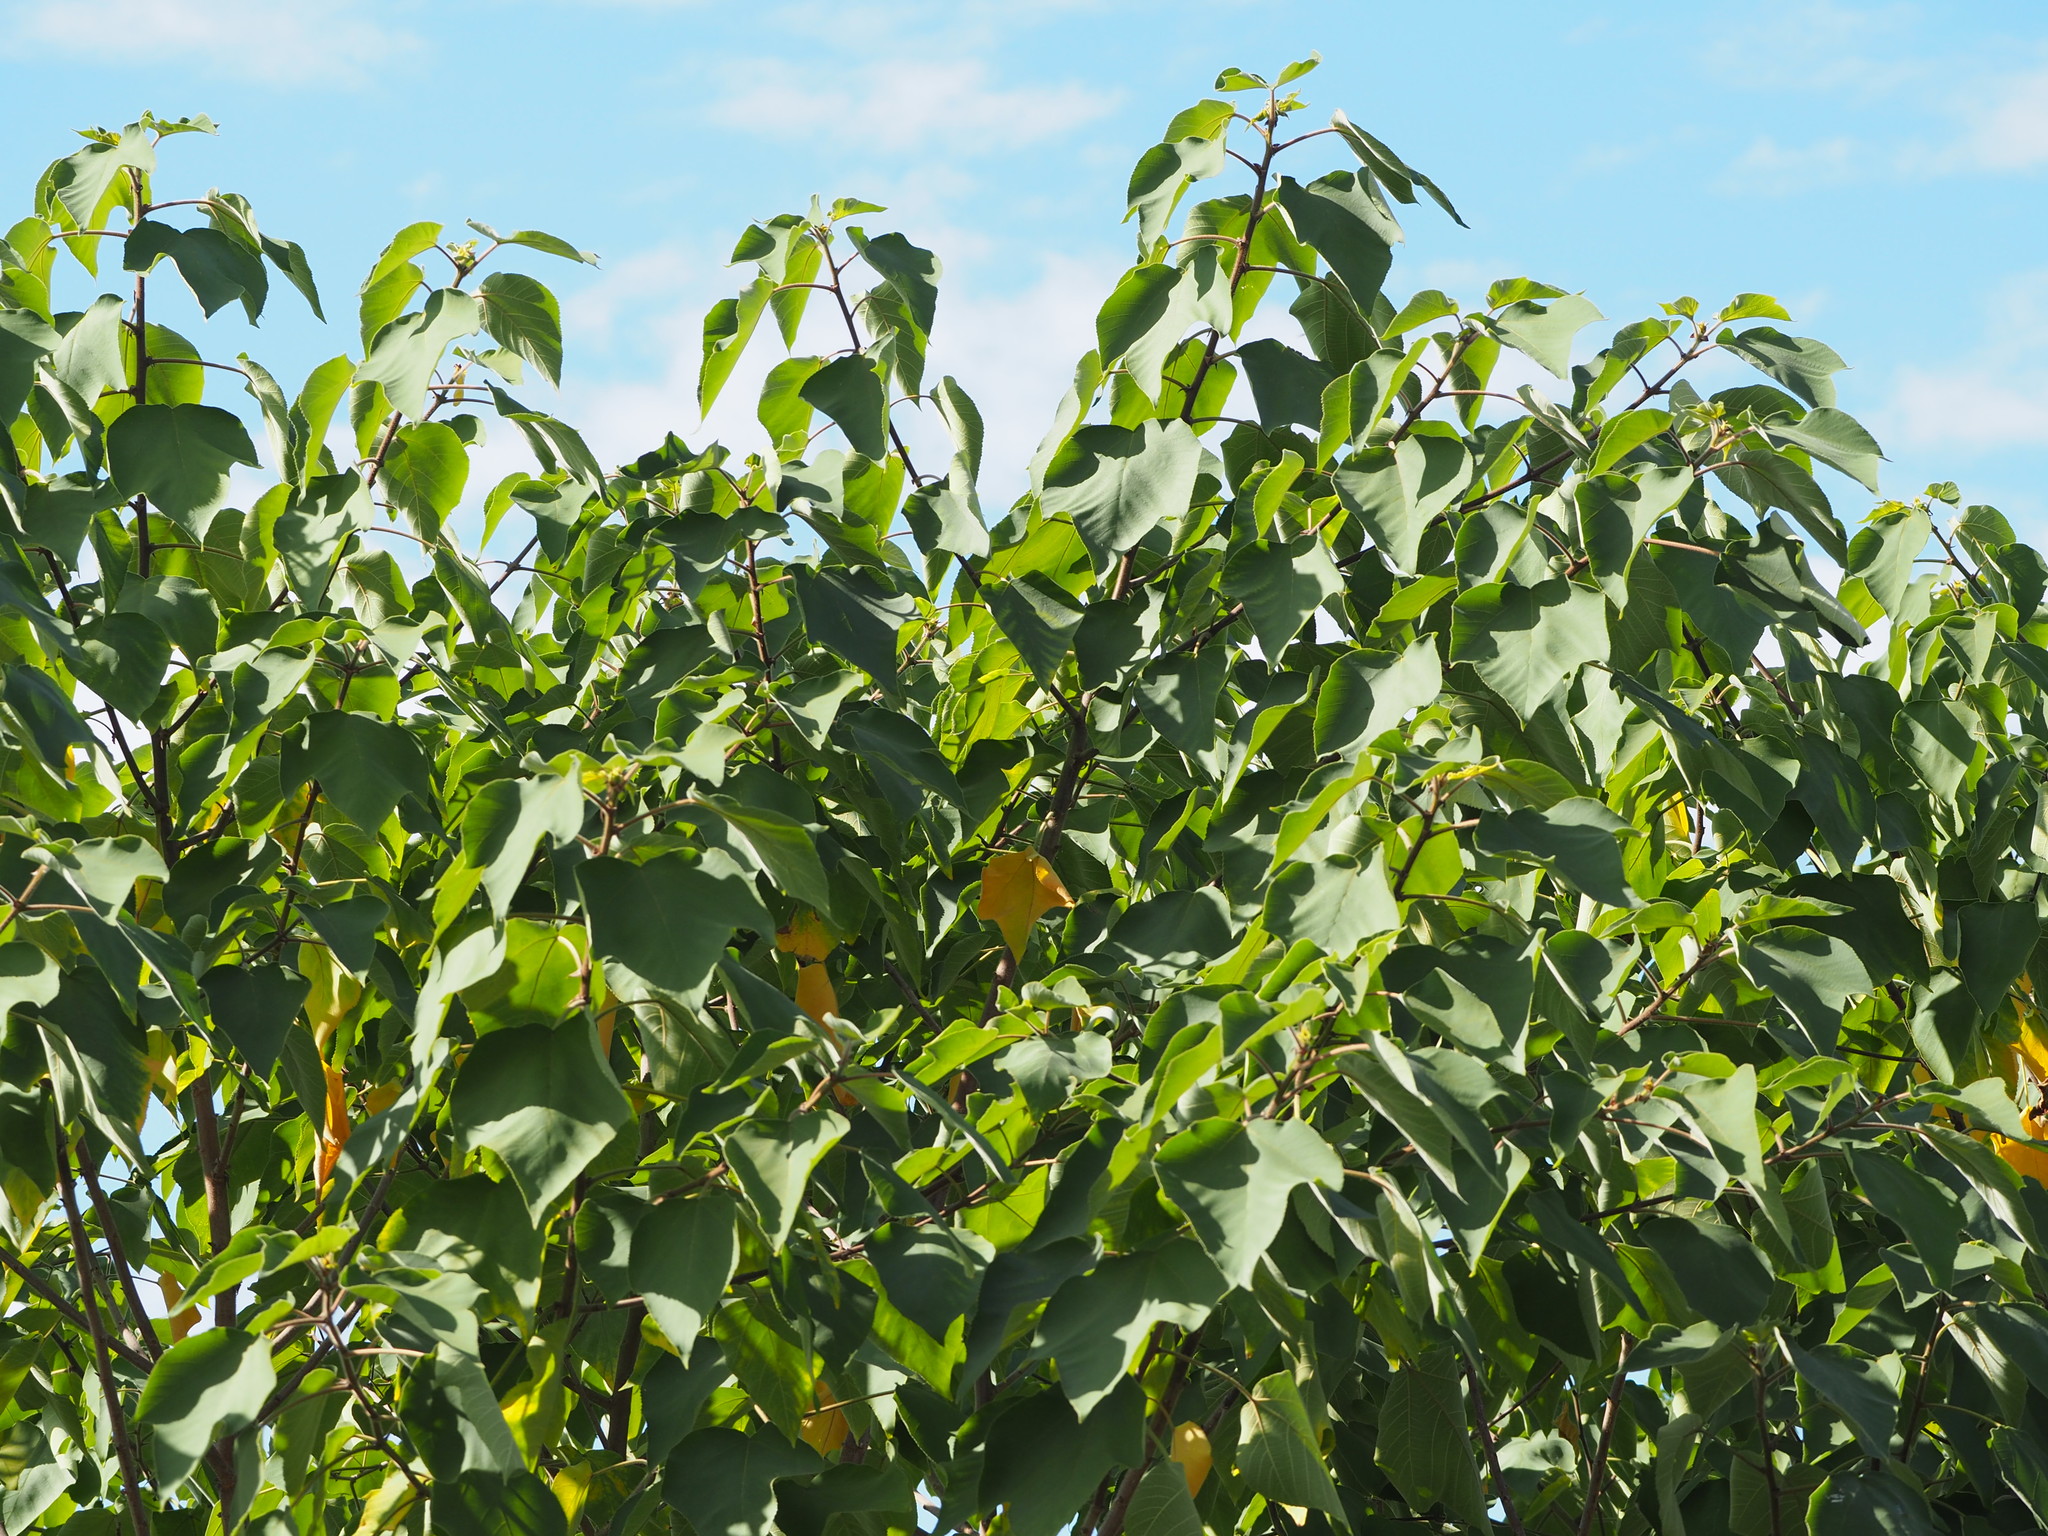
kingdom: Plantae
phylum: Tracheophyta
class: Magnoliopsida
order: Rosales
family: Moraceae
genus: Broussonetia
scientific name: Broussonetia papyrifera
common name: Paper mulberry
